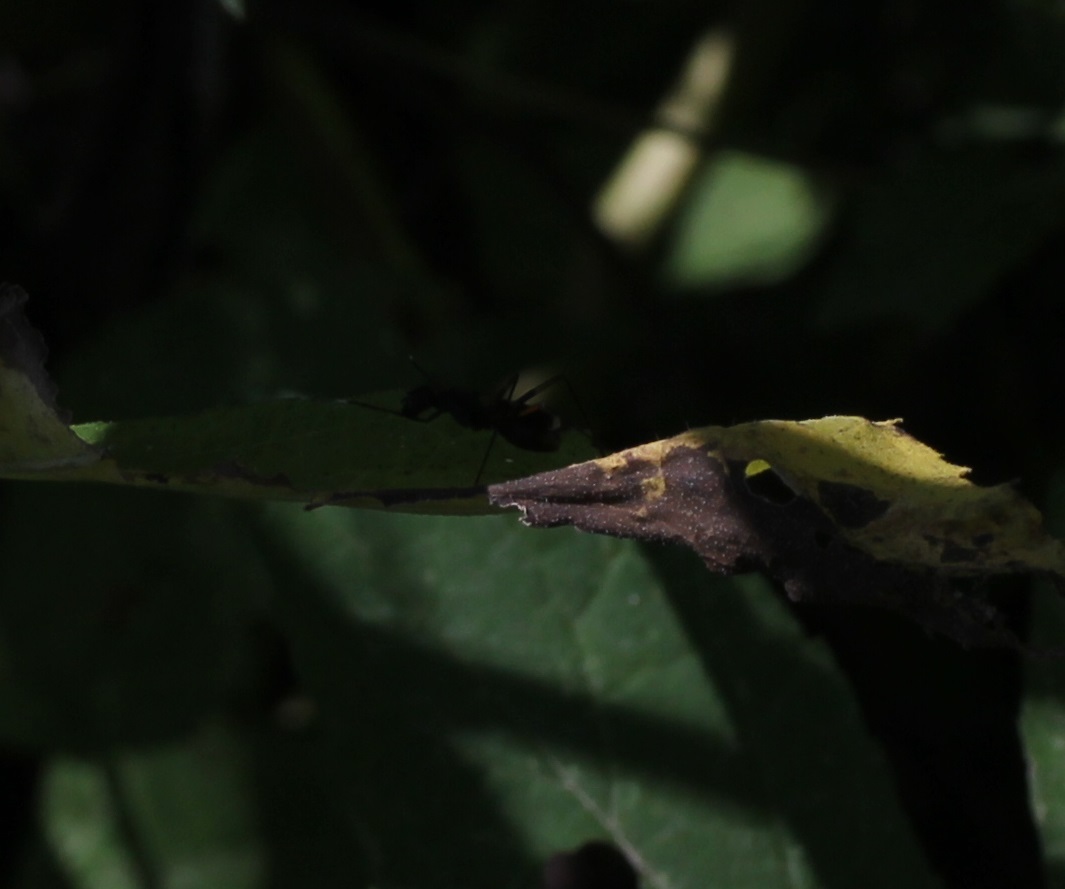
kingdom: Animalia
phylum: Arthropoda
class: Insecta
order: Diptera
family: Micropezidae
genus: Taeniaptera
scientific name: Taeniaptera trivittata
